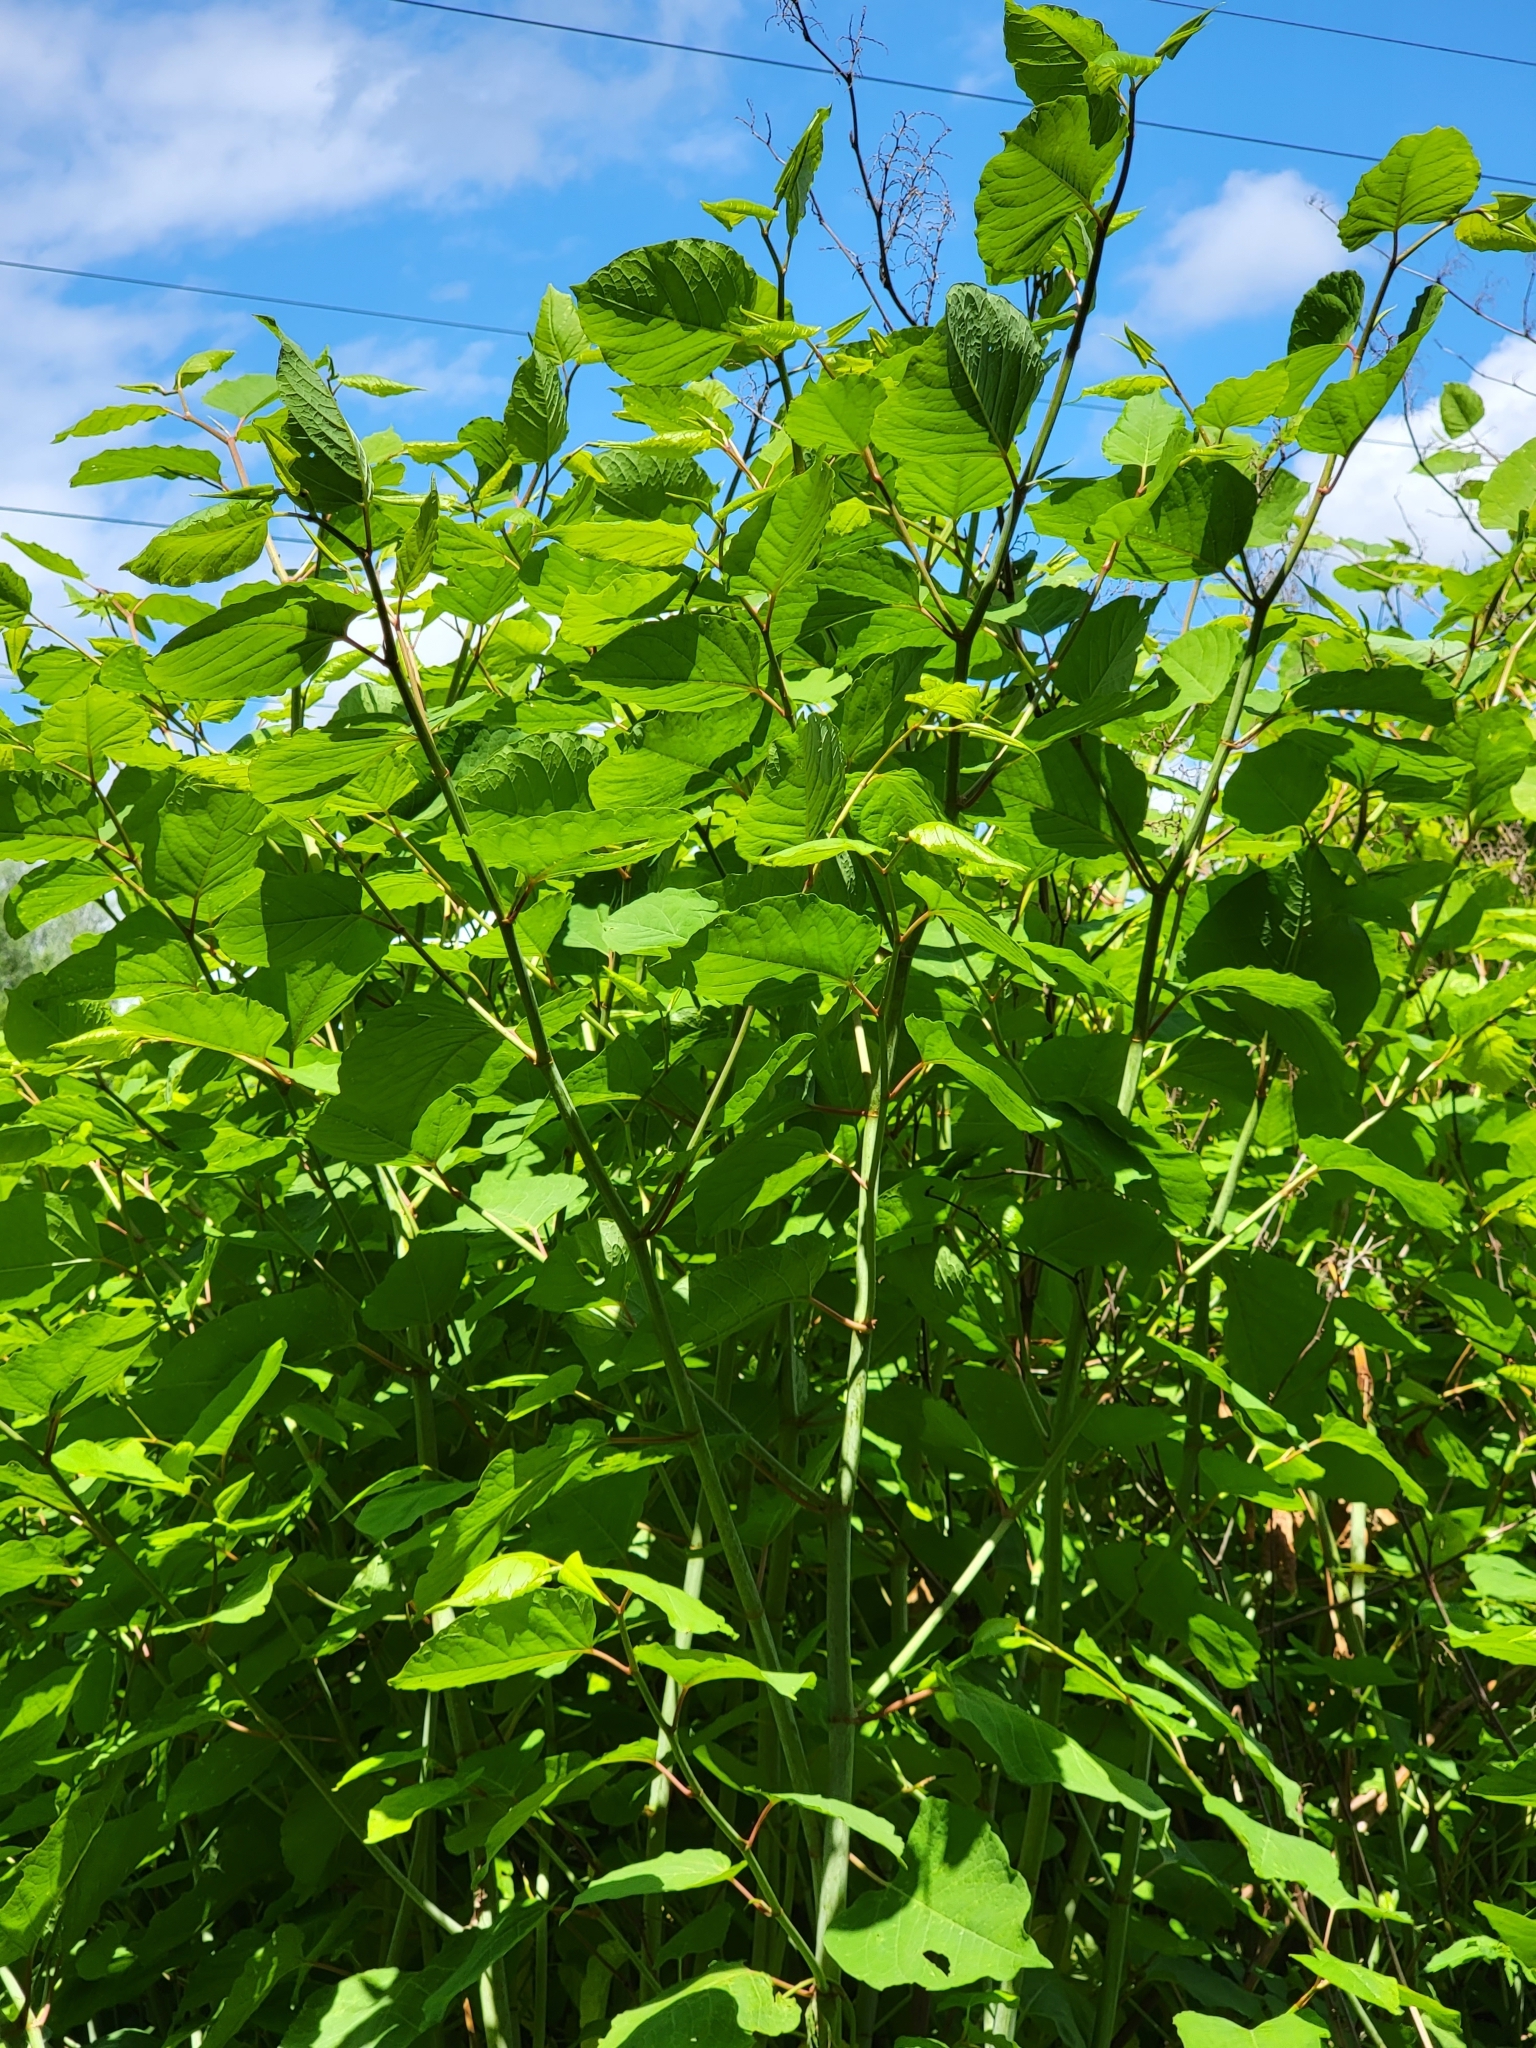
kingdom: Plantae
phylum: Tracheophyta
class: Magnoliopsida
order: Caryophyllales
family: Polygonaceae
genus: Reynoutria
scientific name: Reynoutria bohemica
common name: Bohemian knotweed
